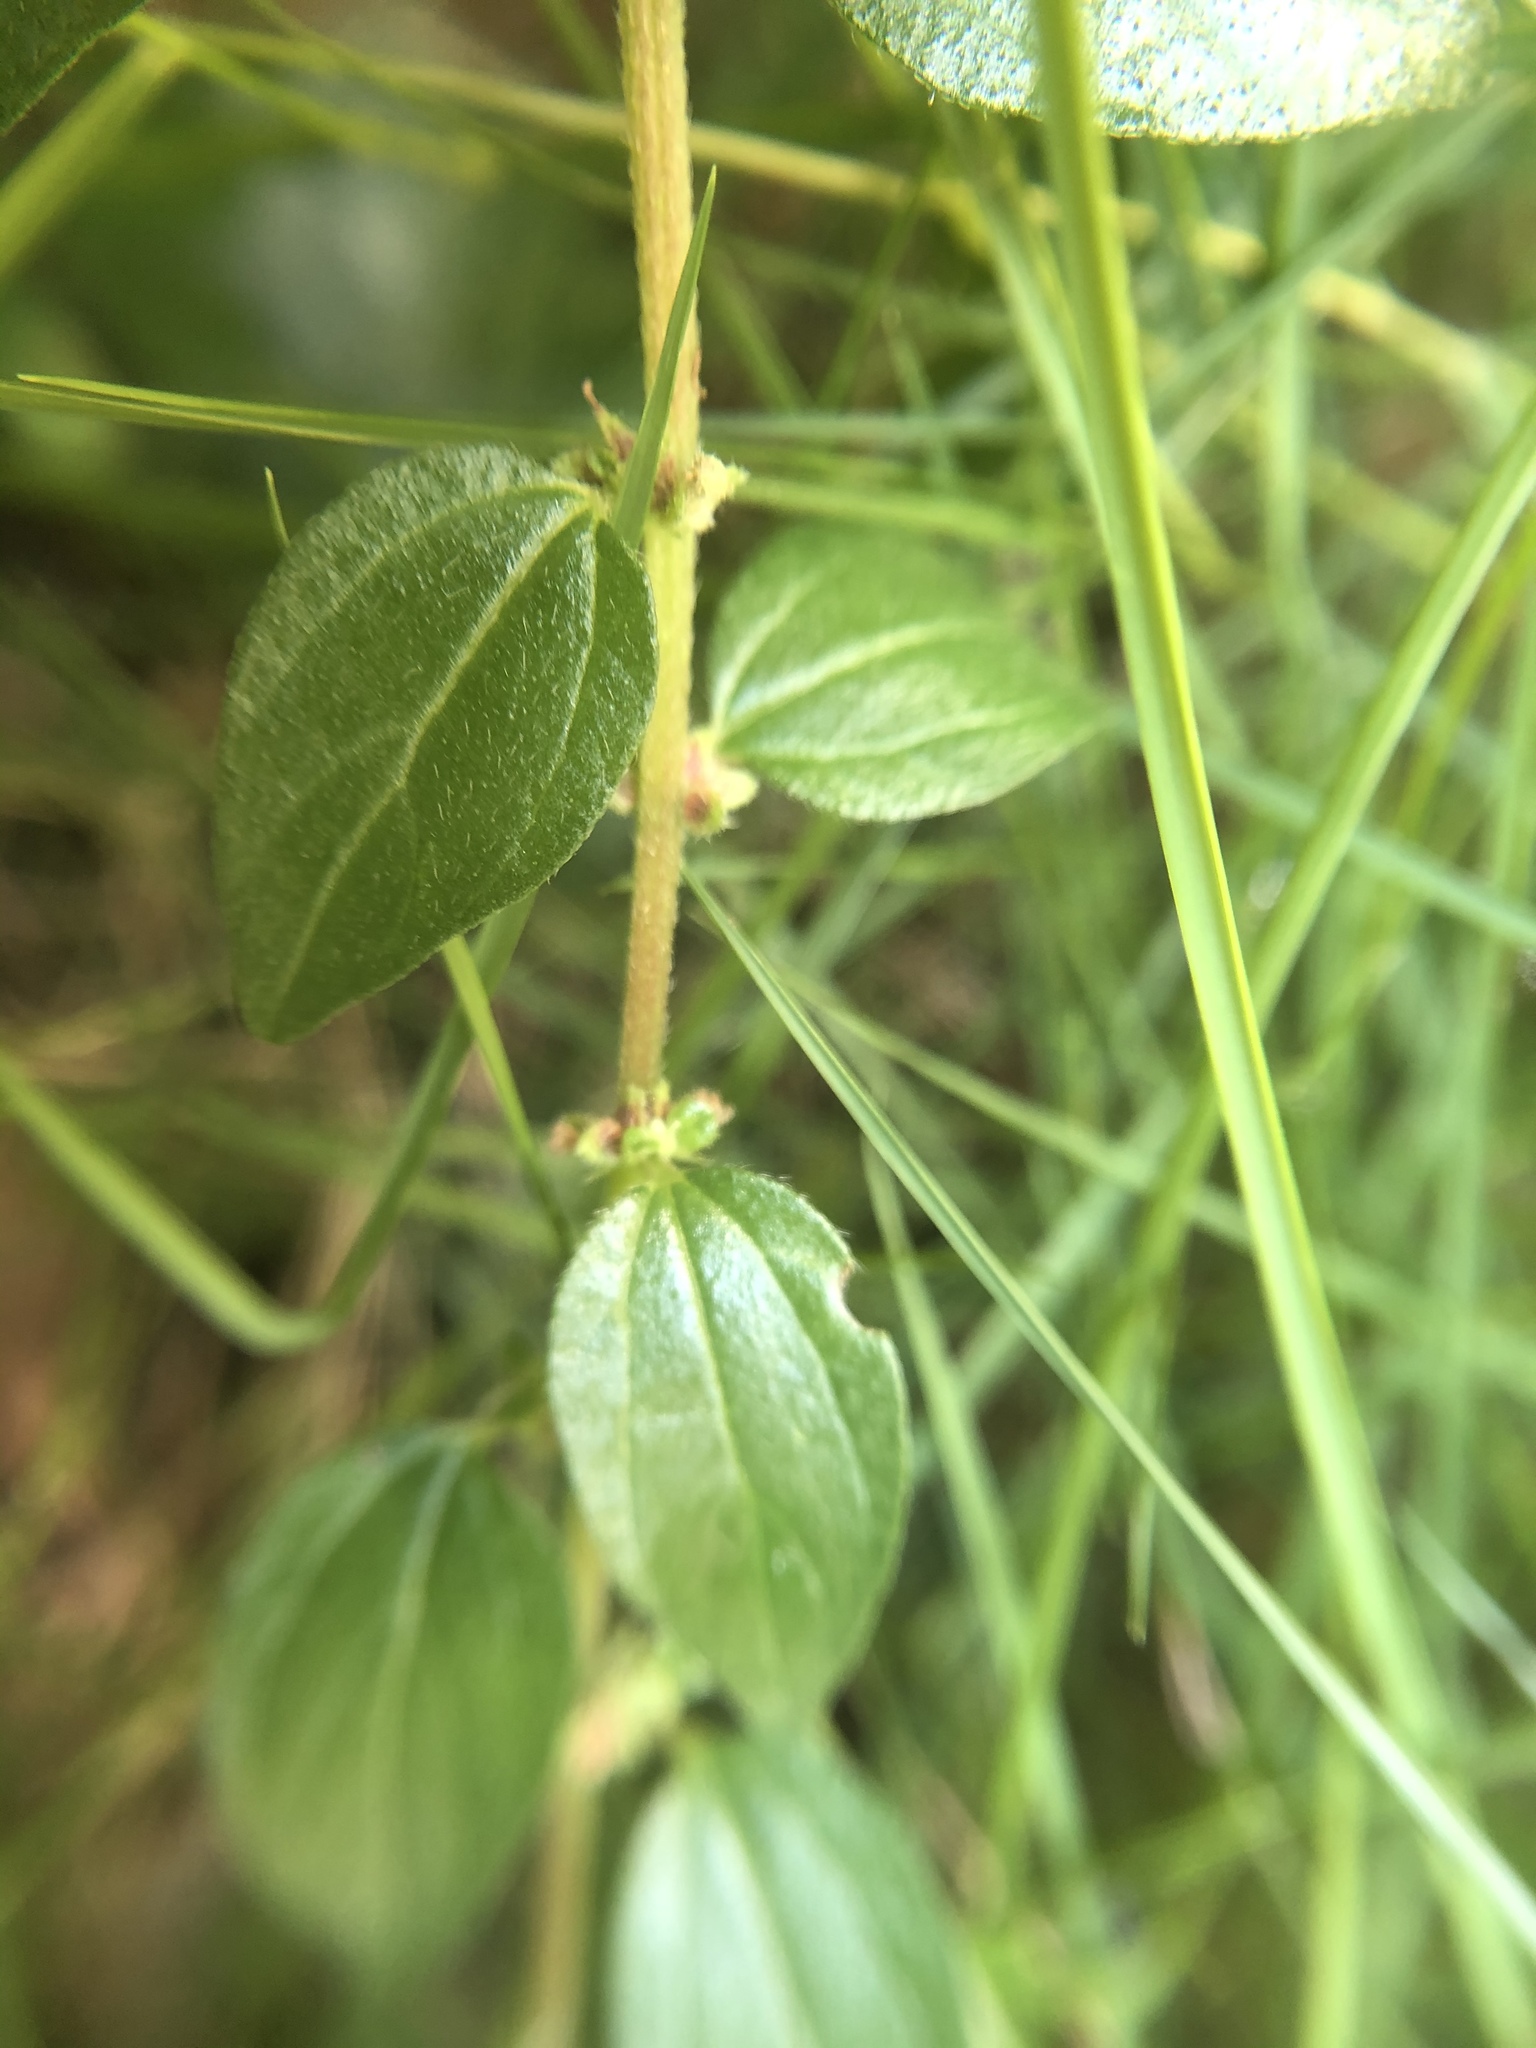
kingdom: Plantae
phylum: Tracheophyta
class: Magnoliopsida
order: Rosales
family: Urticaceae
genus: Pouzolzia
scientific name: Pouzolzia zeylanica
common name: Graceful pouzolzsbush
